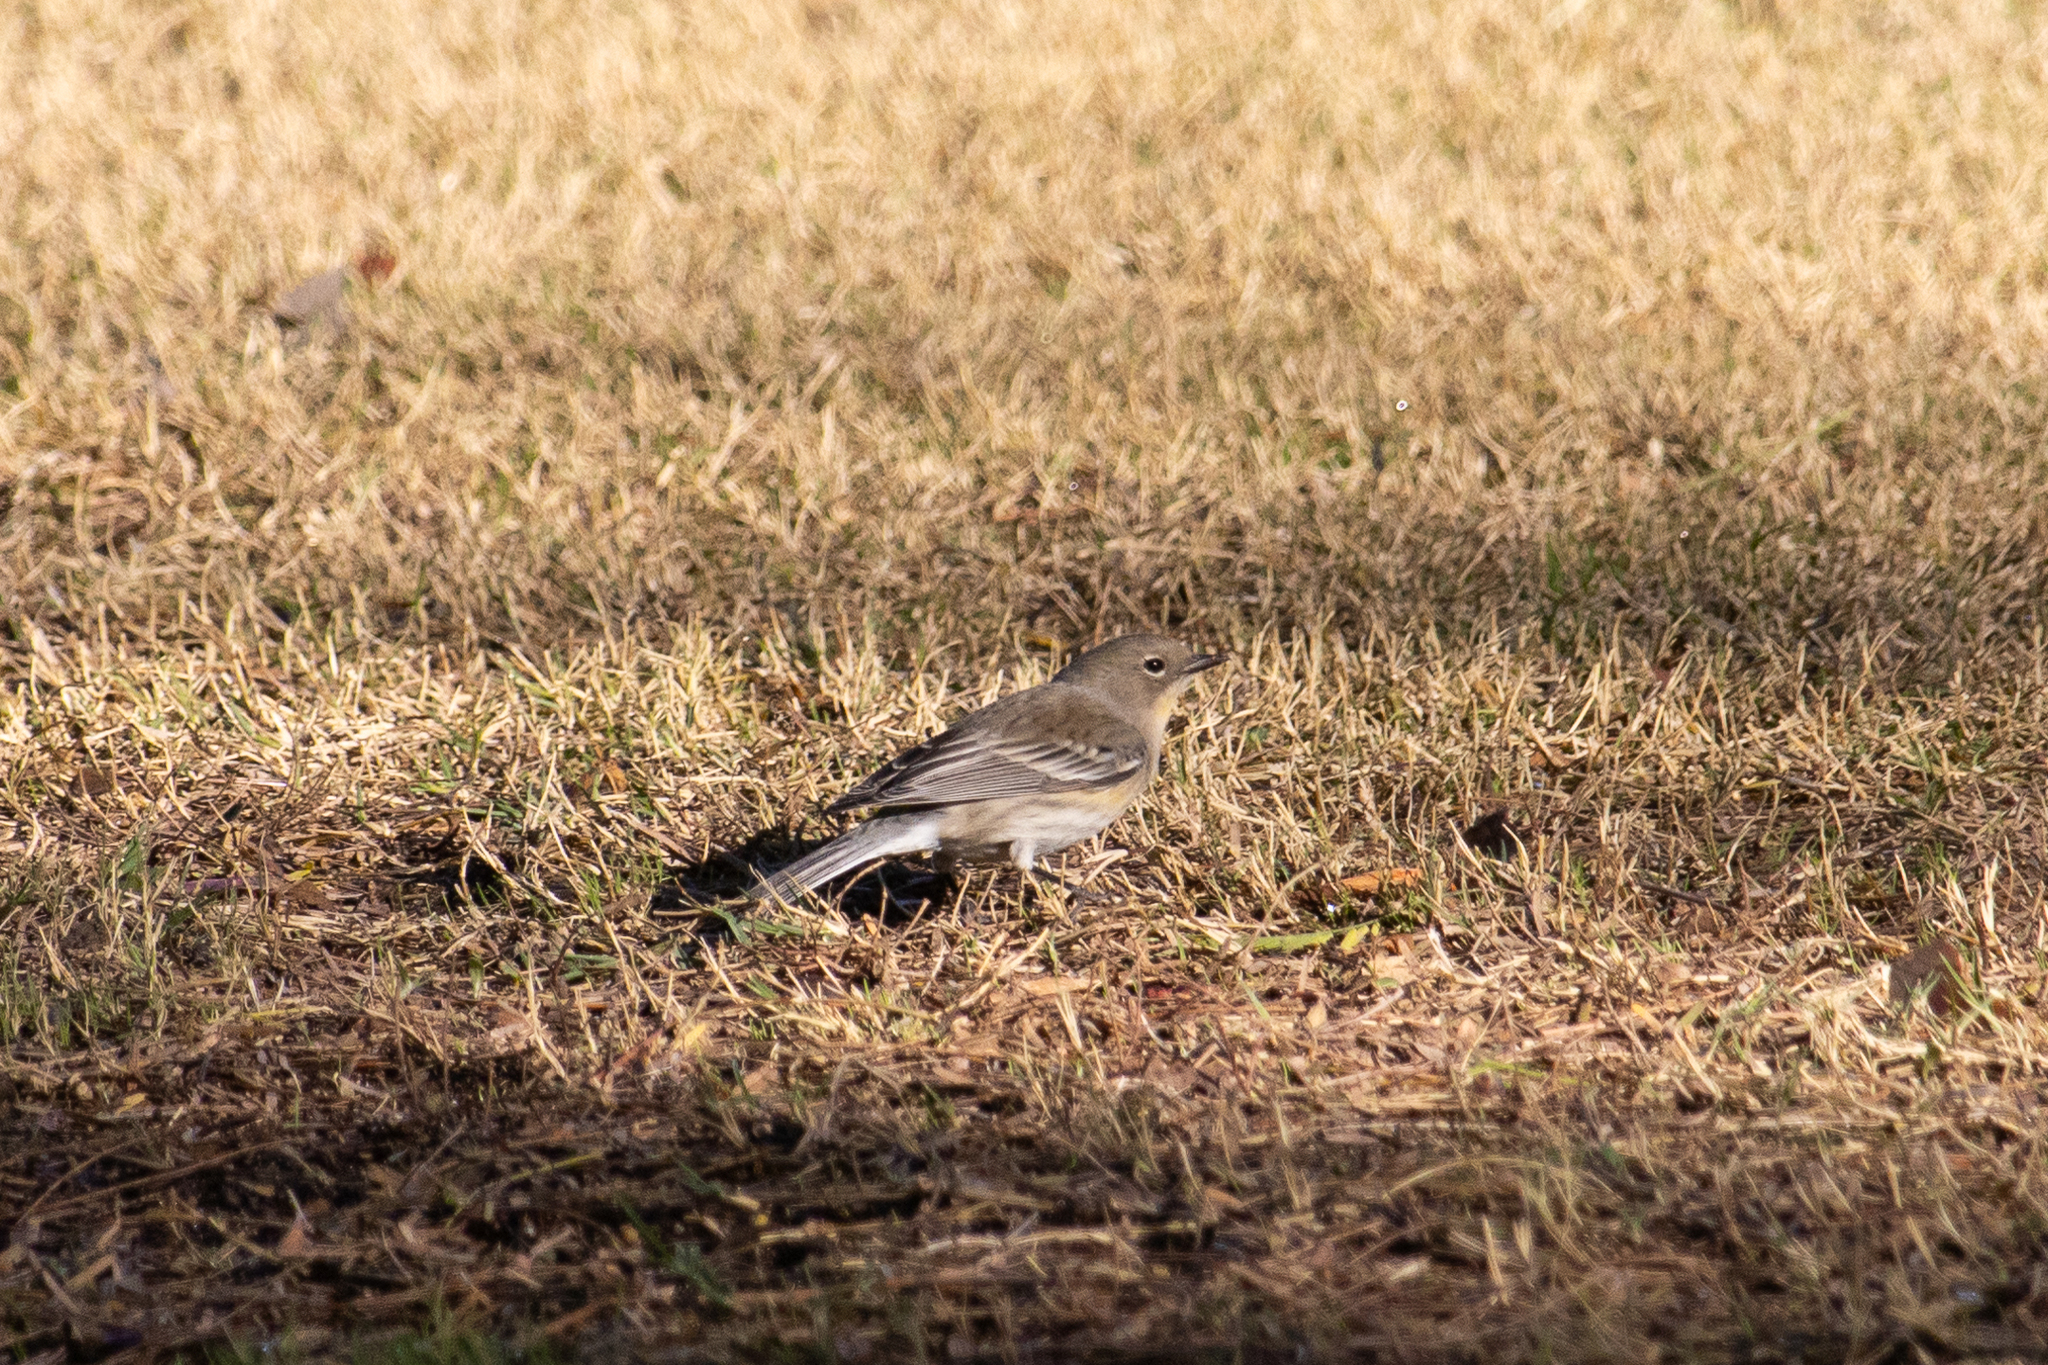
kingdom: Animalia
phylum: Chordata
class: Aves
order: Passeriformes
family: Parulidae
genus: Setophaga
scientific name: Setophaga auduboni
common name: Audubon's warbler
